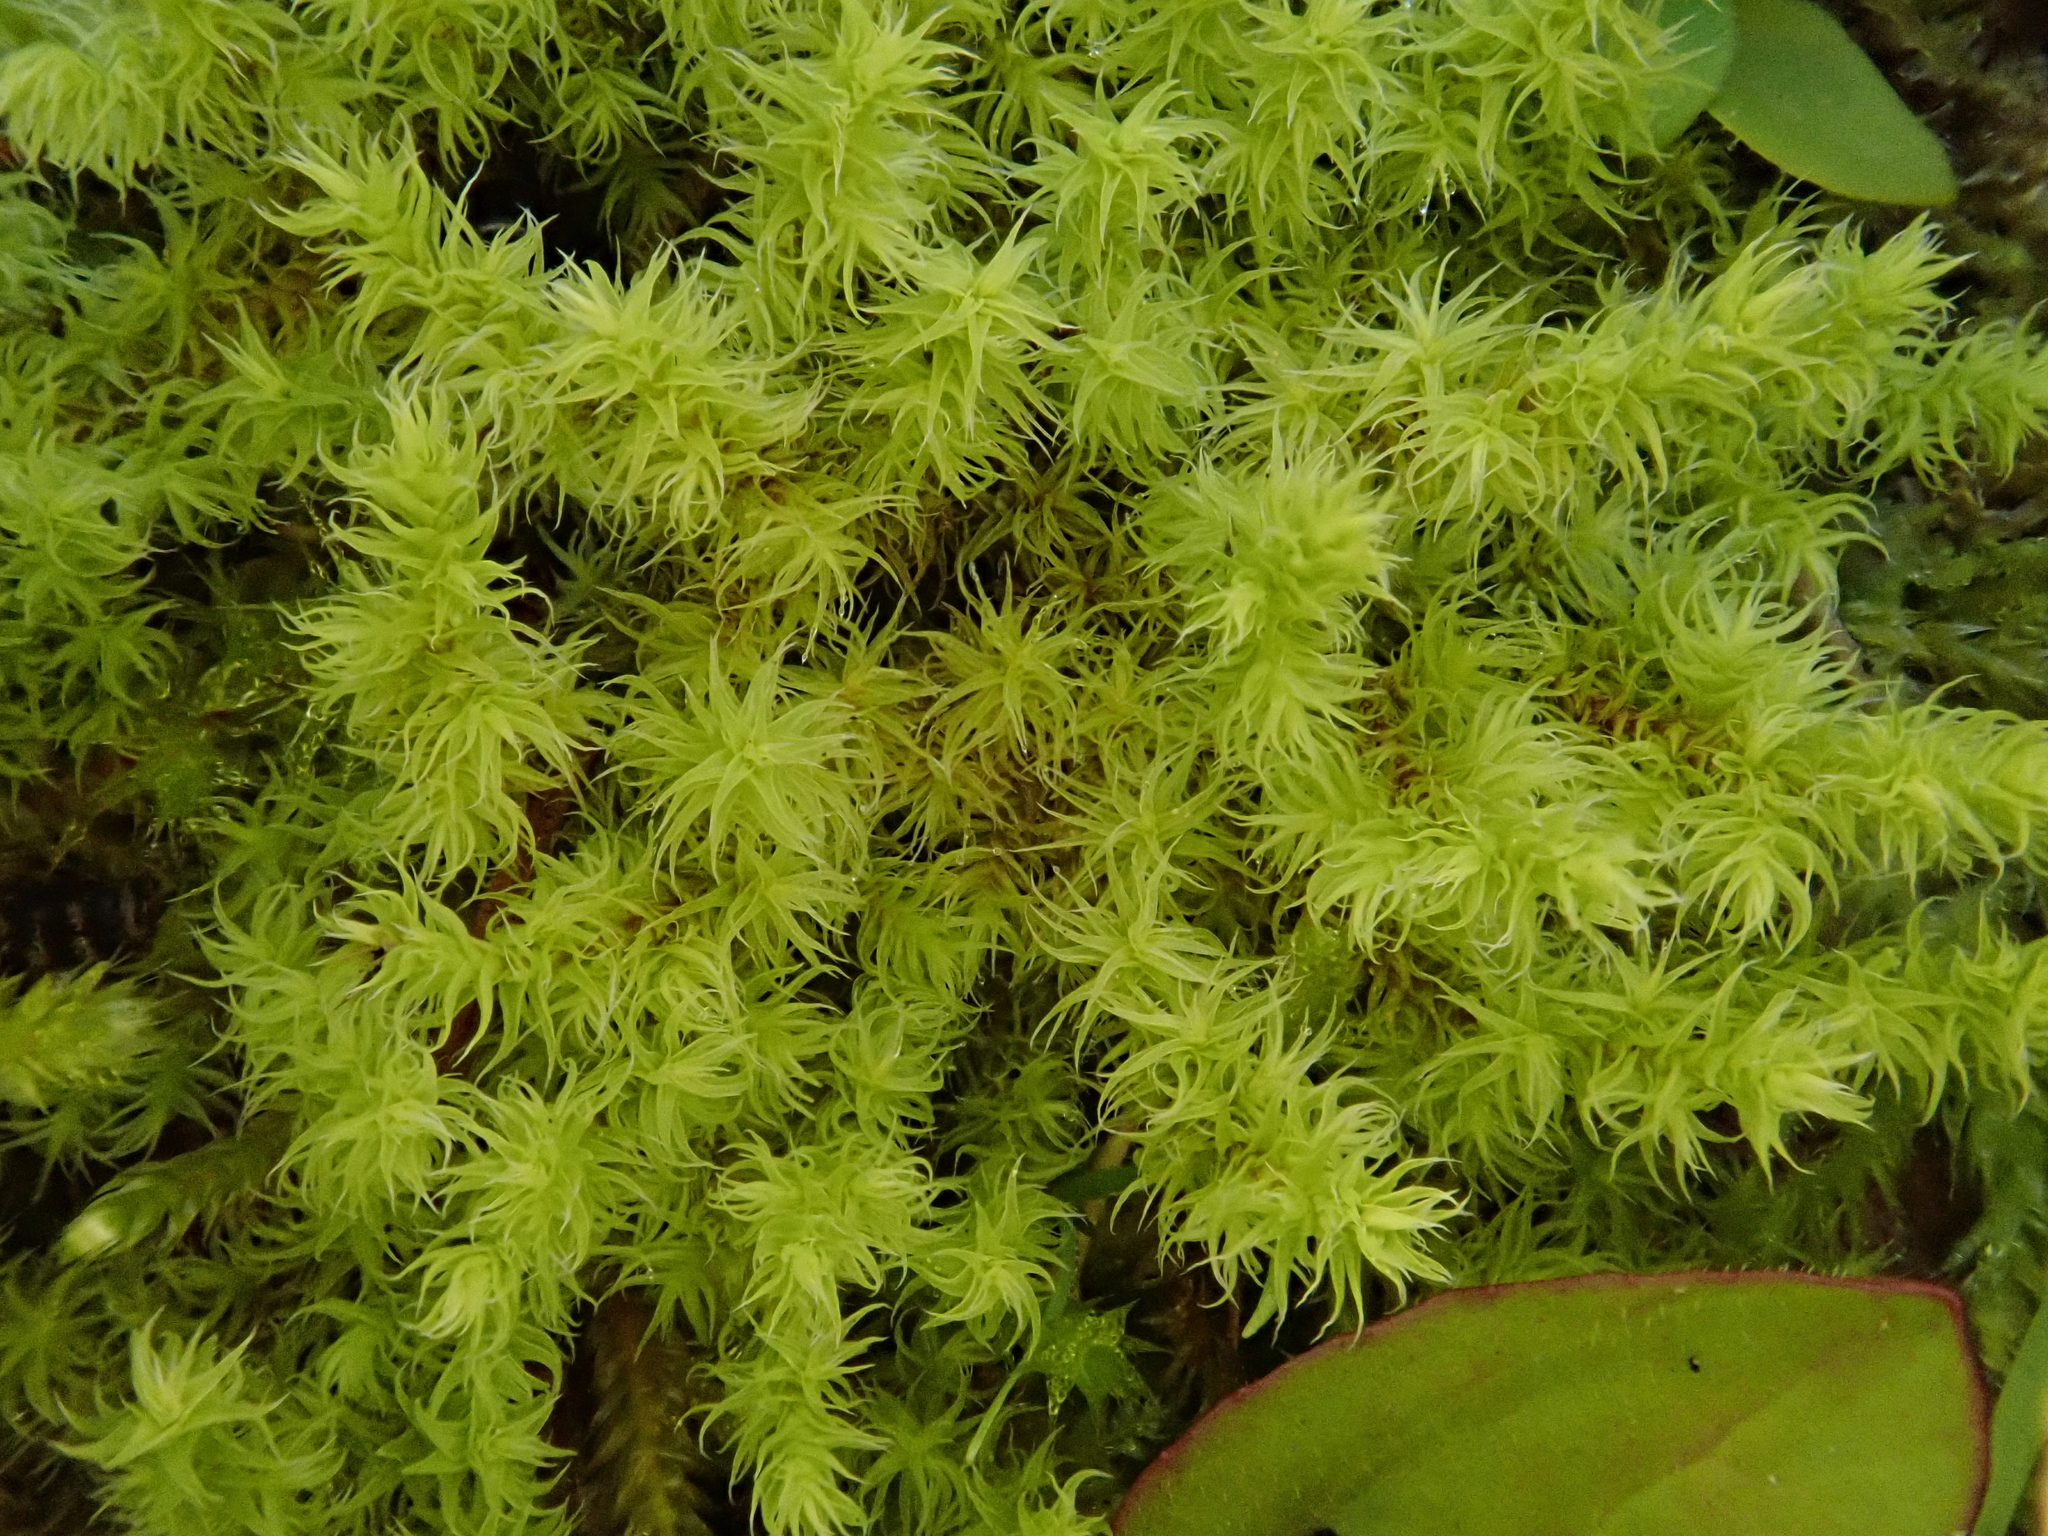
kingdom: Plantae
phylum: Bryophyta
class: Bryopsida
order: Grimmiales
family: Grimmiaceae
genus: Niphotrichum
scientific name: Niphotrichum canescens
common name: Hoary fringe-moss
